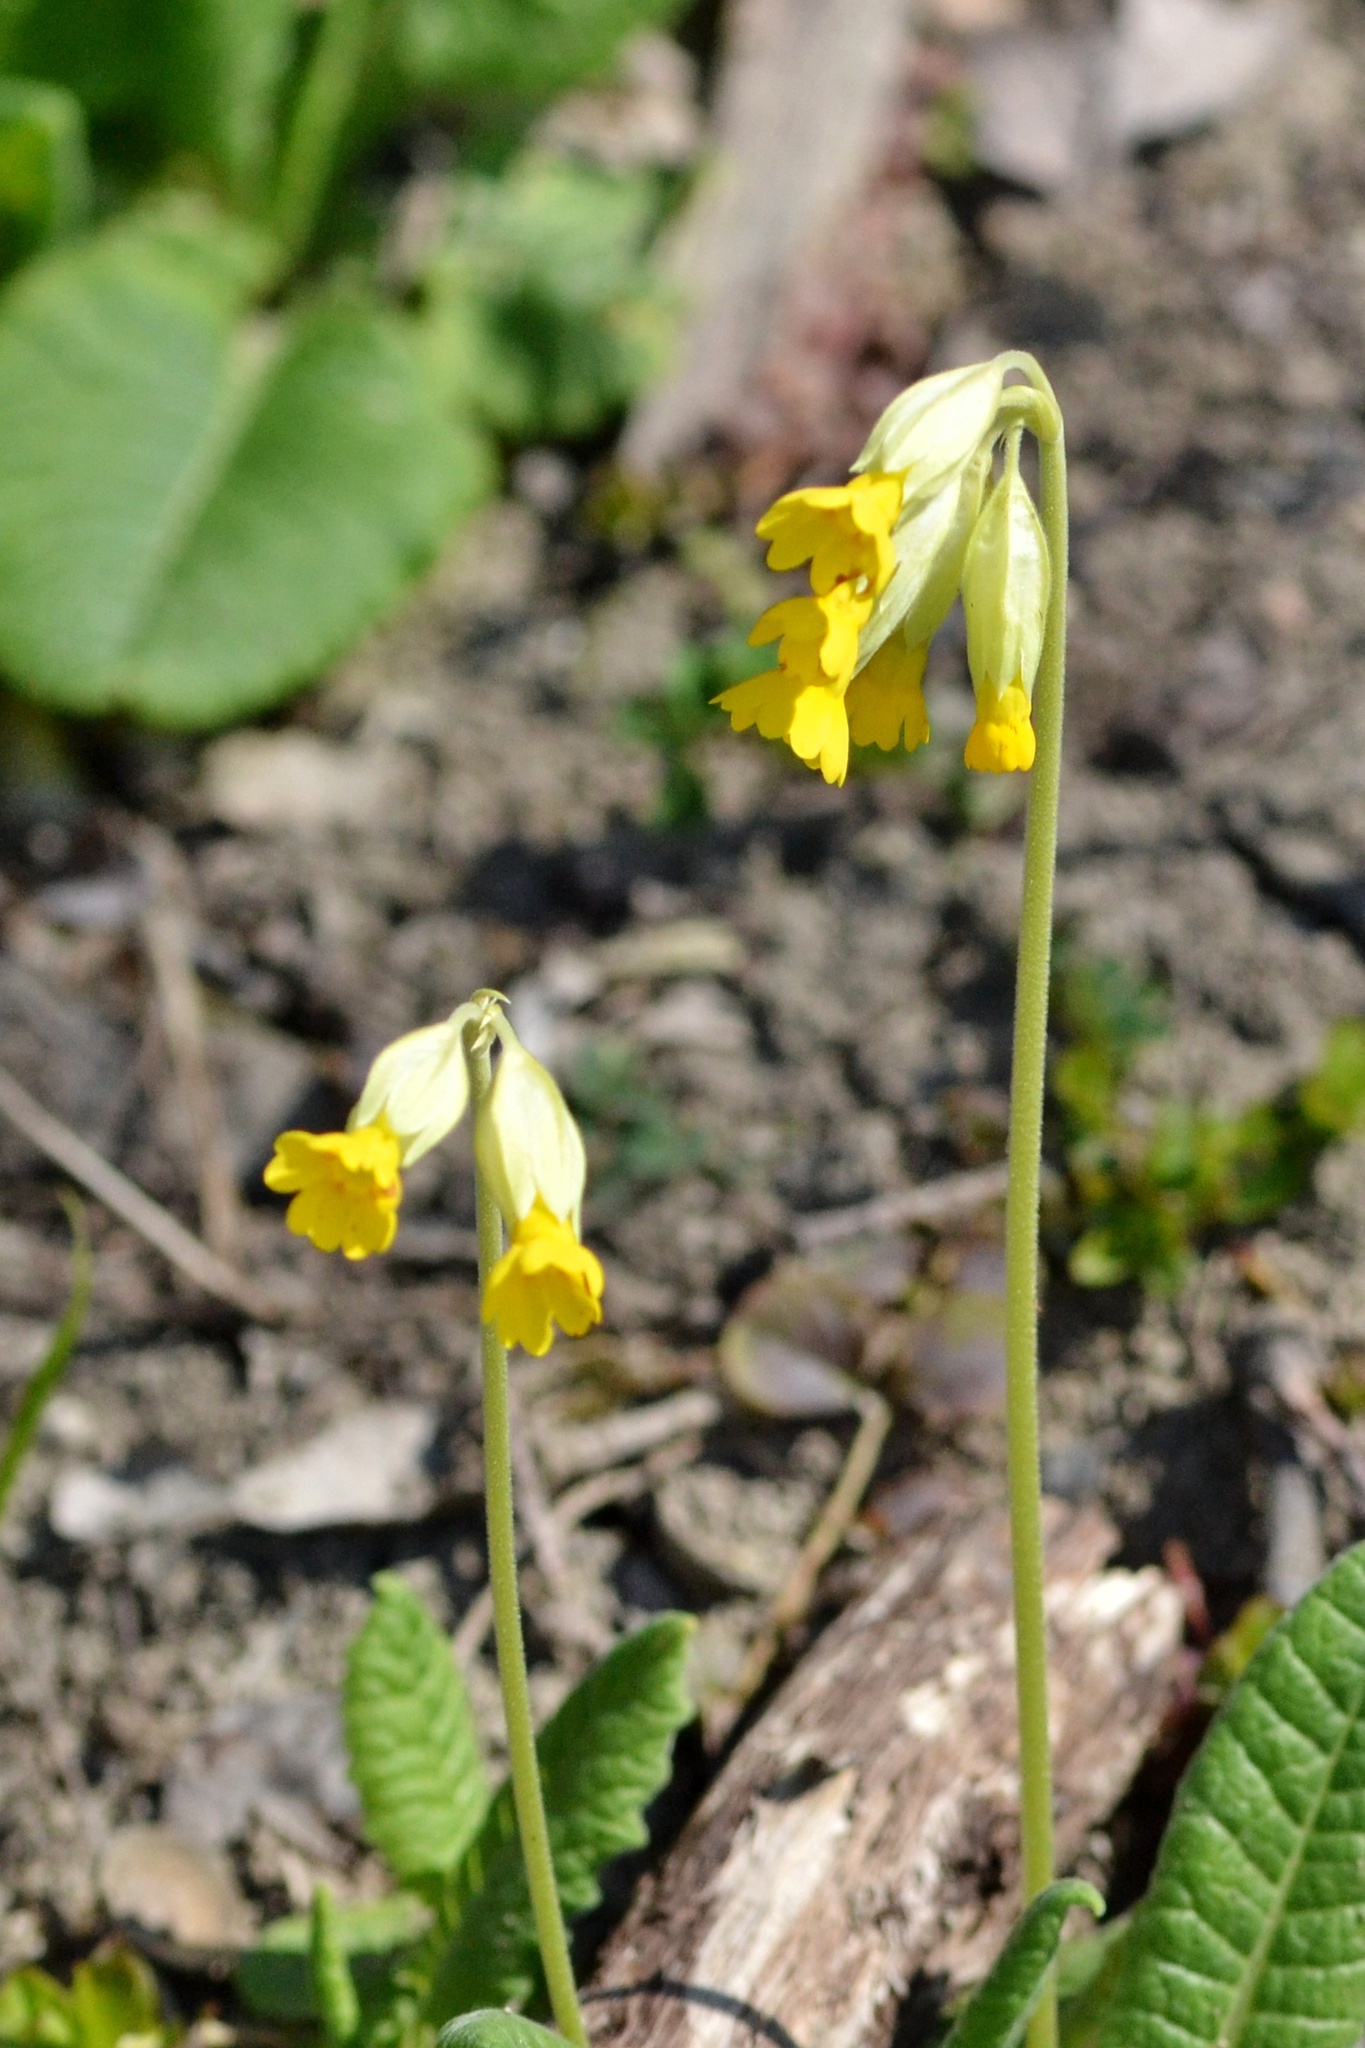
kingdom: Plantae
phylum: Tracheophyta
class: Magnoliopsida
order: Ericales
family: Primulaceae
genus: Primula
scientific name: Primula veris
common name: Cowslip
